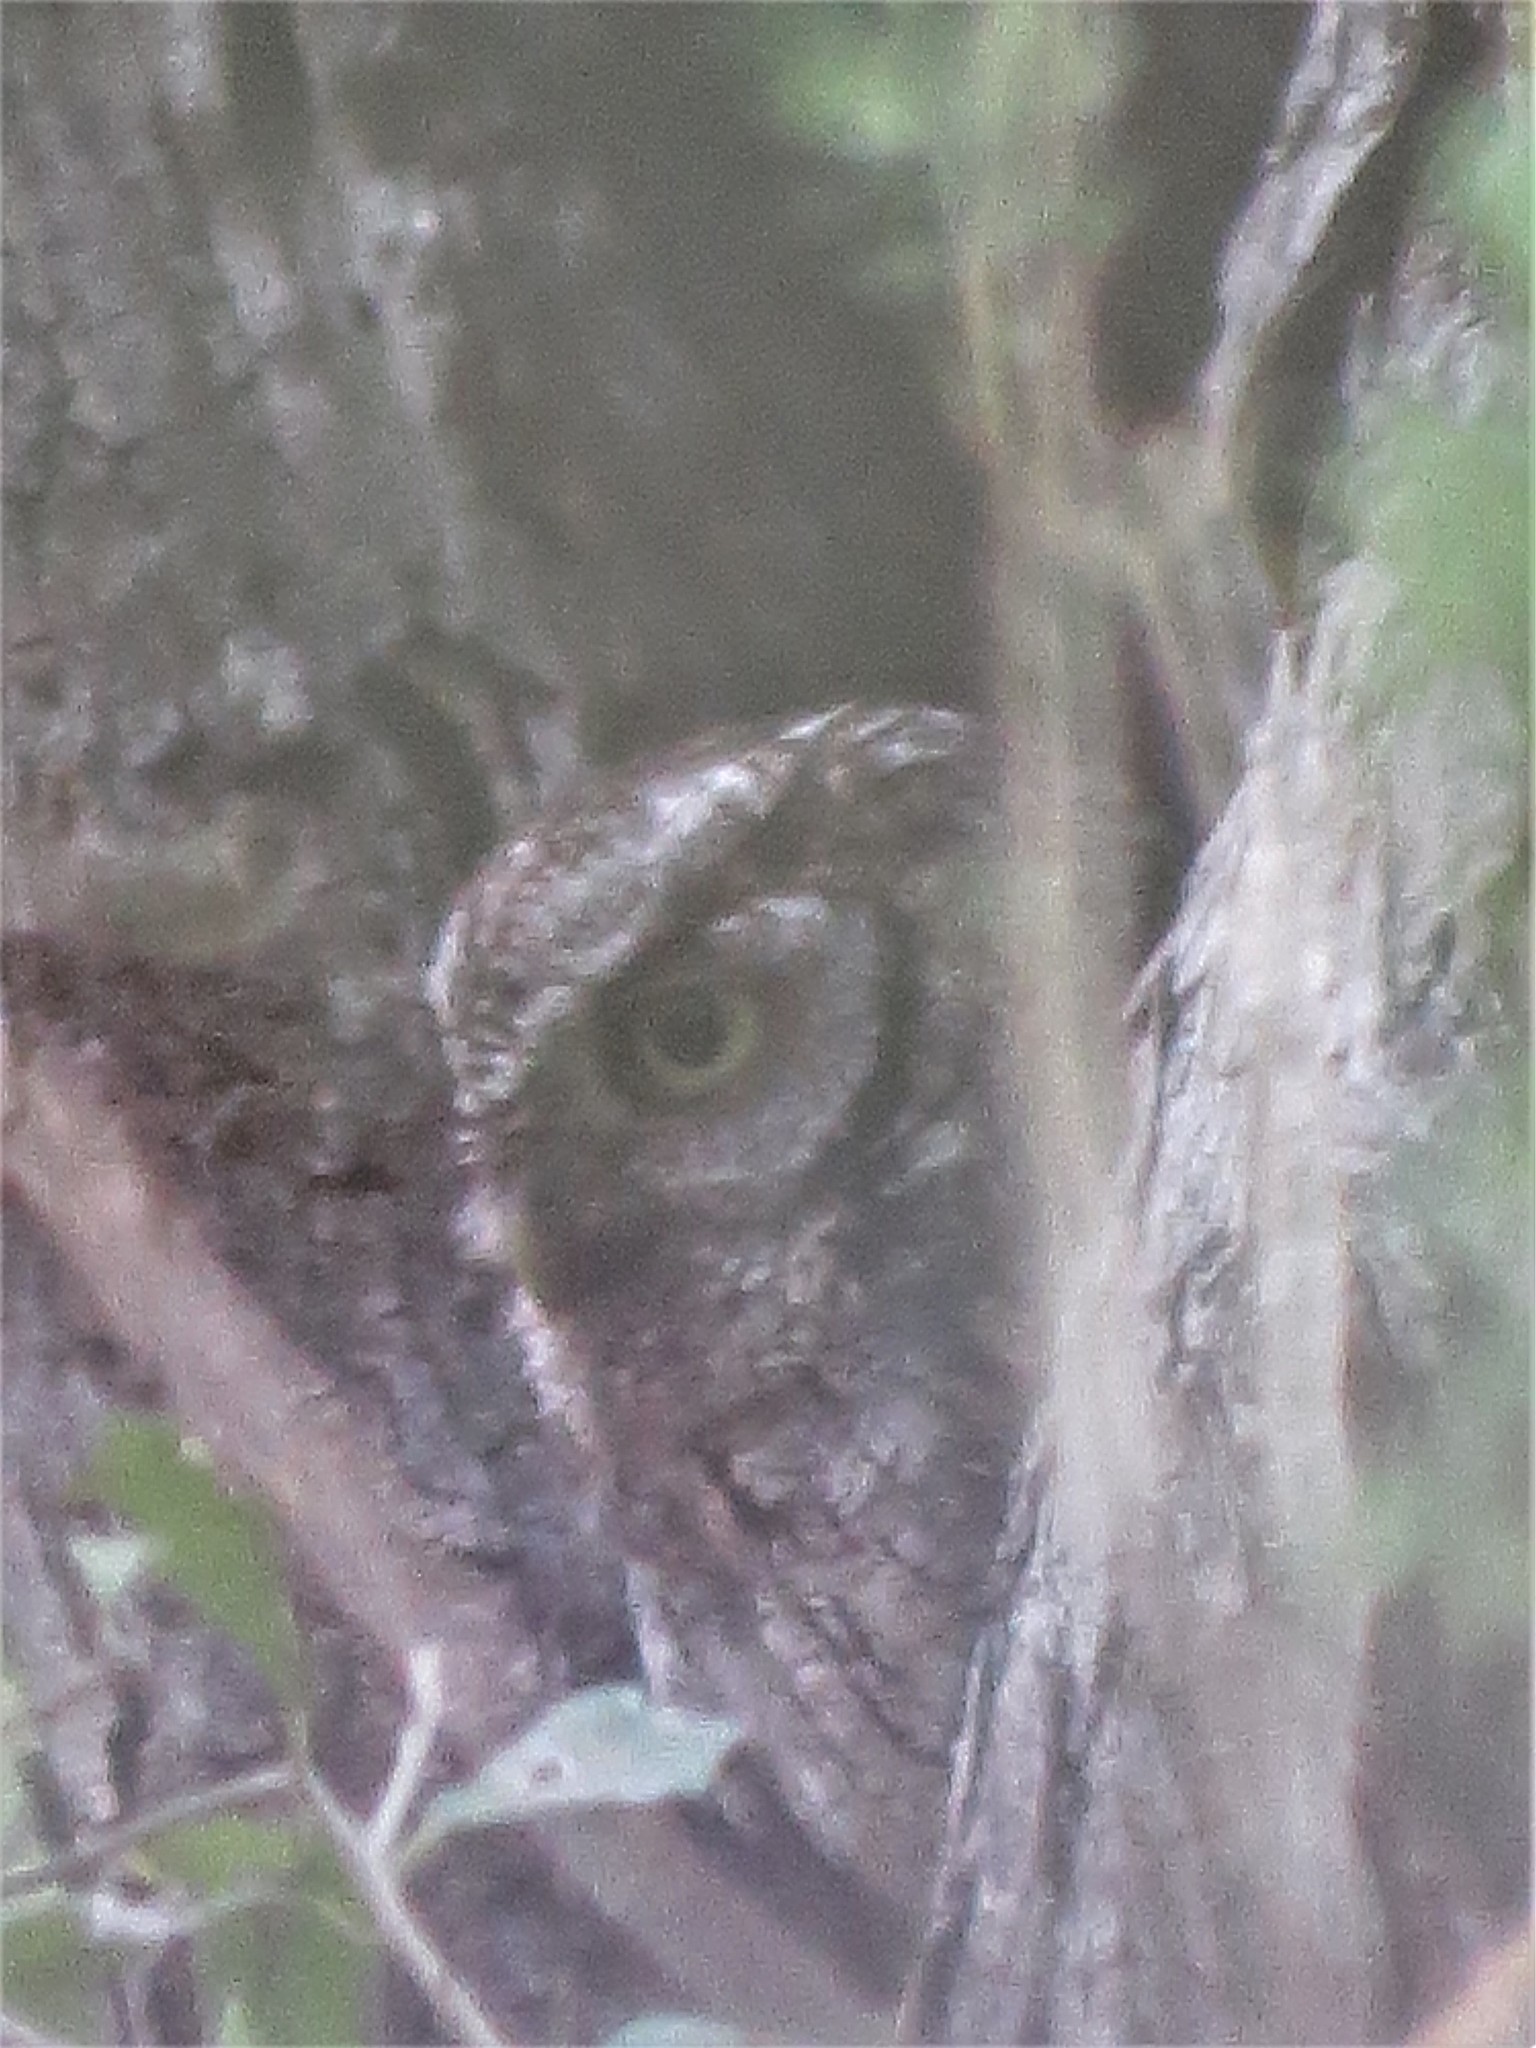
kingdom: Animalia
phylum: Chordata
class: Aves
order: Strigiformes
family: Strigidae
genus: Megascops
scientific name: Megascops asio
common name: Eastern screech-owl
